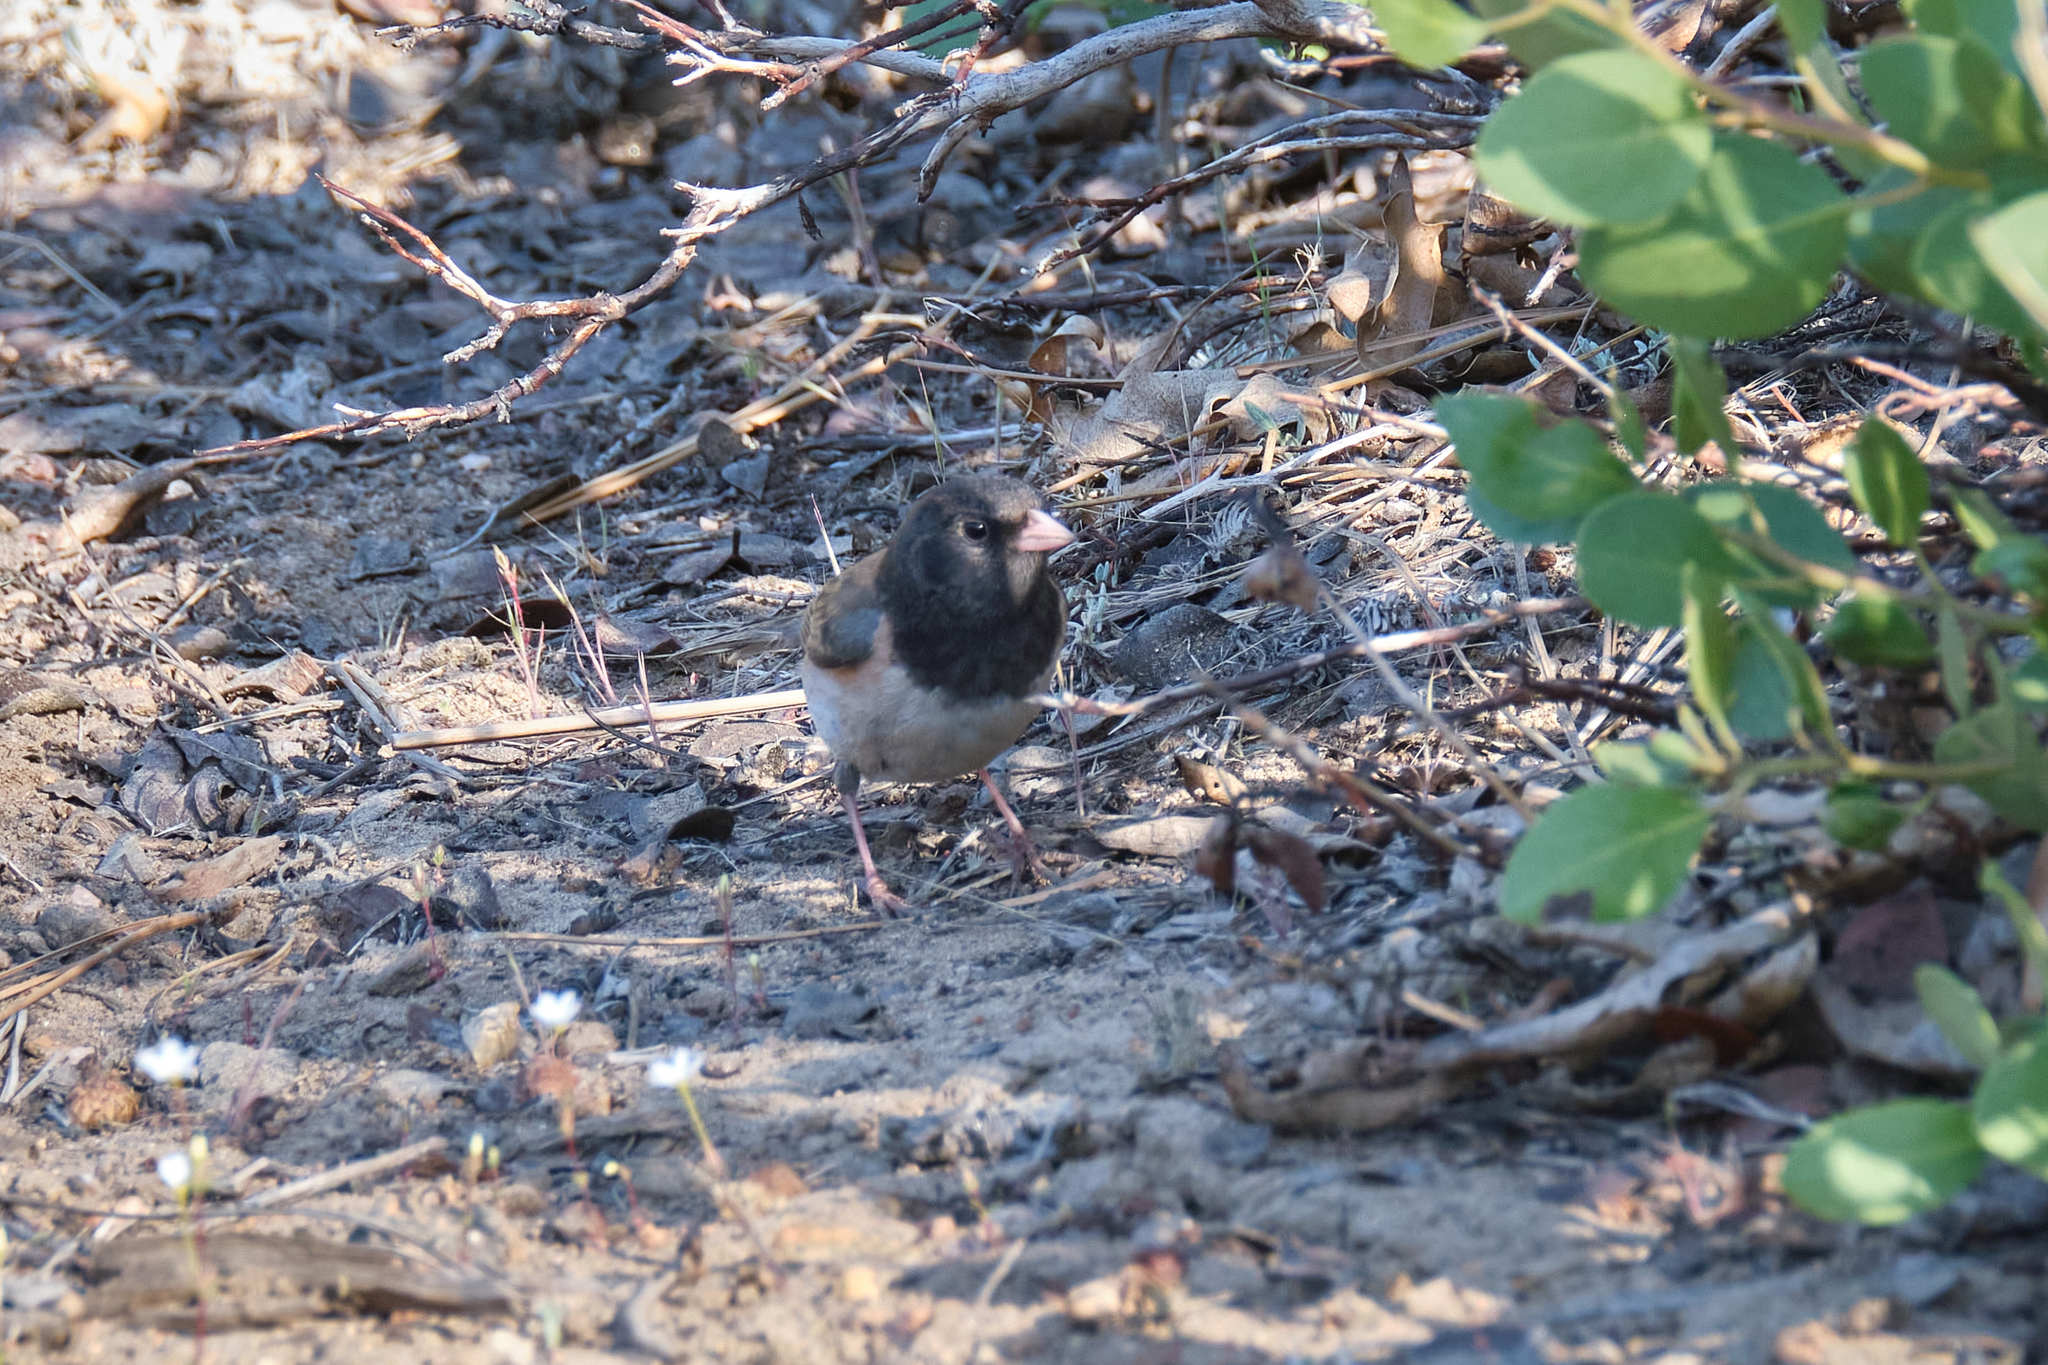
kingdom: Animalia
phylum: Chordata
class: Aves
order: Passeriformes
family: Passerellidae
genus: Junco
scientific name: Junco hyemalis
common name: Dark-eyed junco
